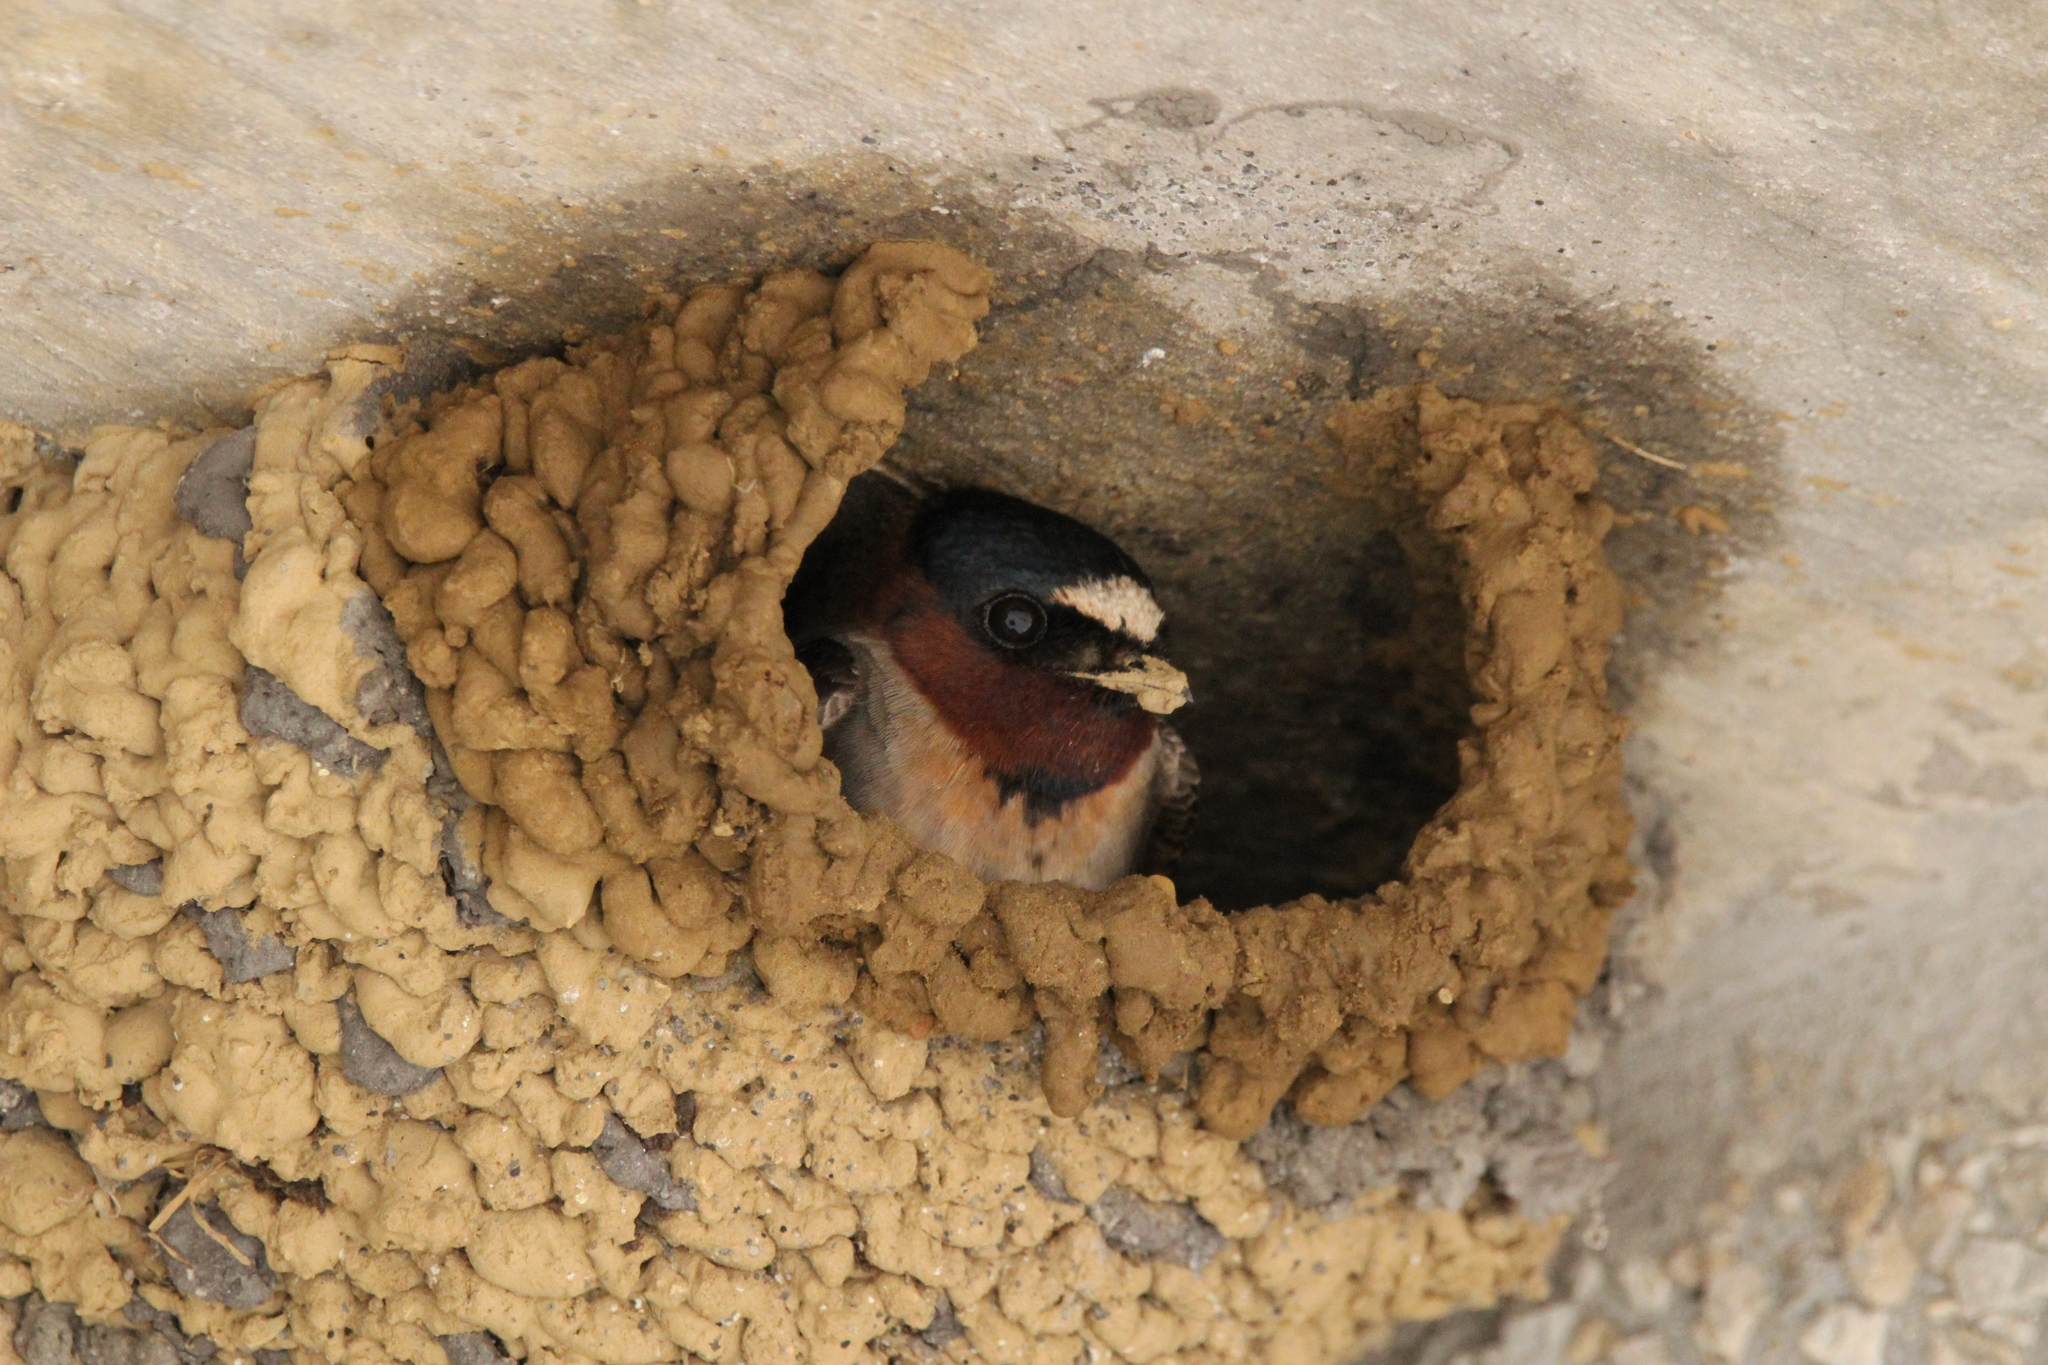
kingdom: Animalia
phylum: Chordata
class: Aves
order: Passeriformes
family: Hirundinidae
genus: Petrochelidon
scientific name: Petrochelidon pyrrhonota
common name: American cliff swallow
